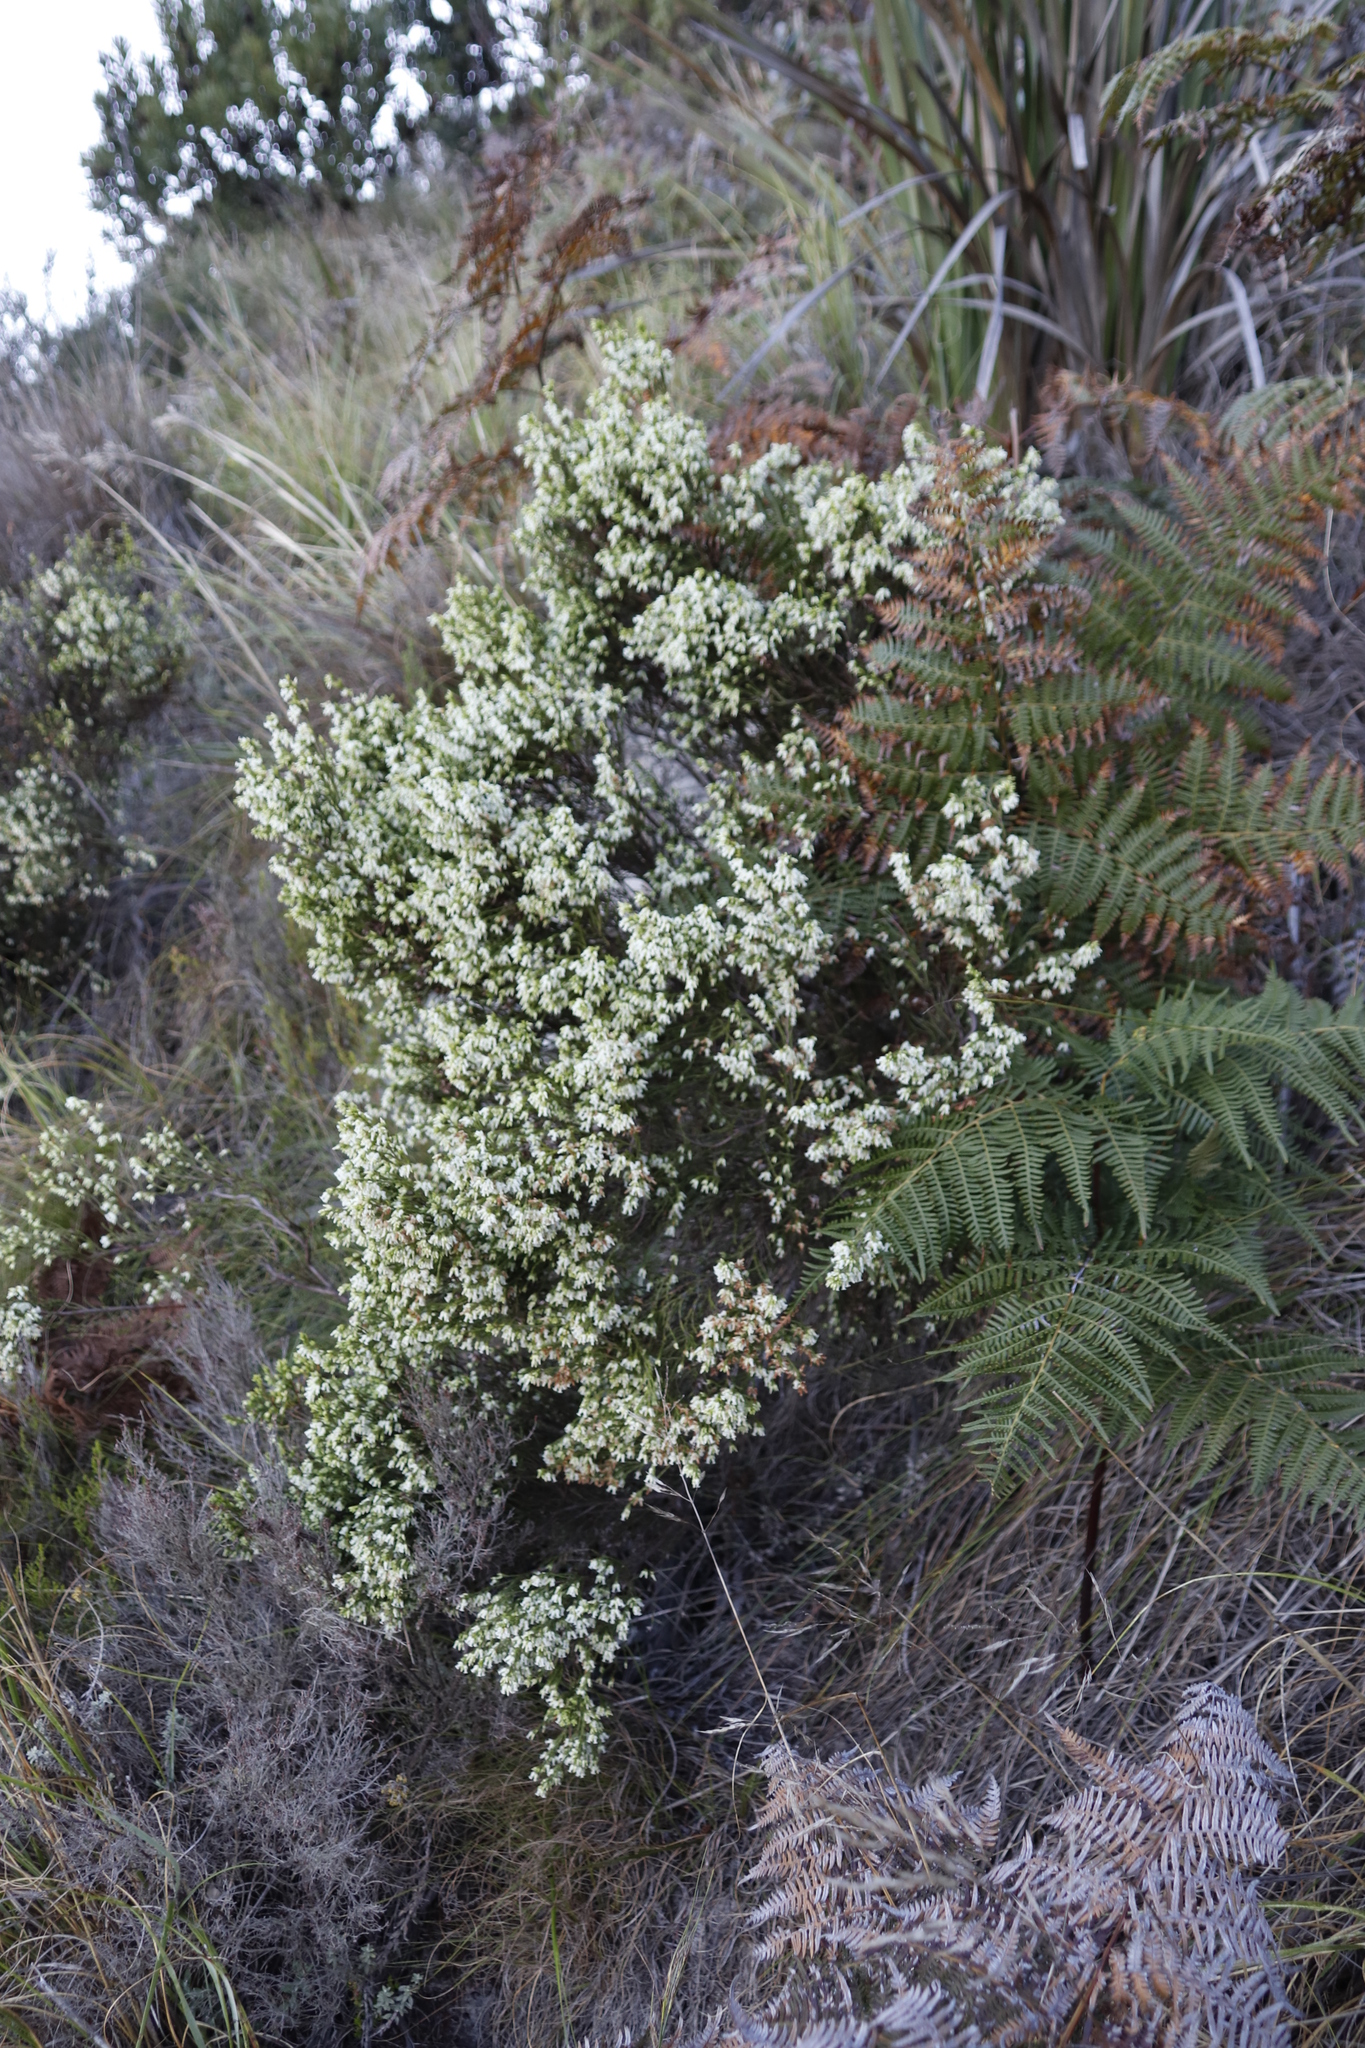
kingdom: Plantae
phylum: Tracheophyta
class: Magnoliopsida
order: Ericales
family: Ericaceae
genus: Erica
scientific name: Erica lutea
